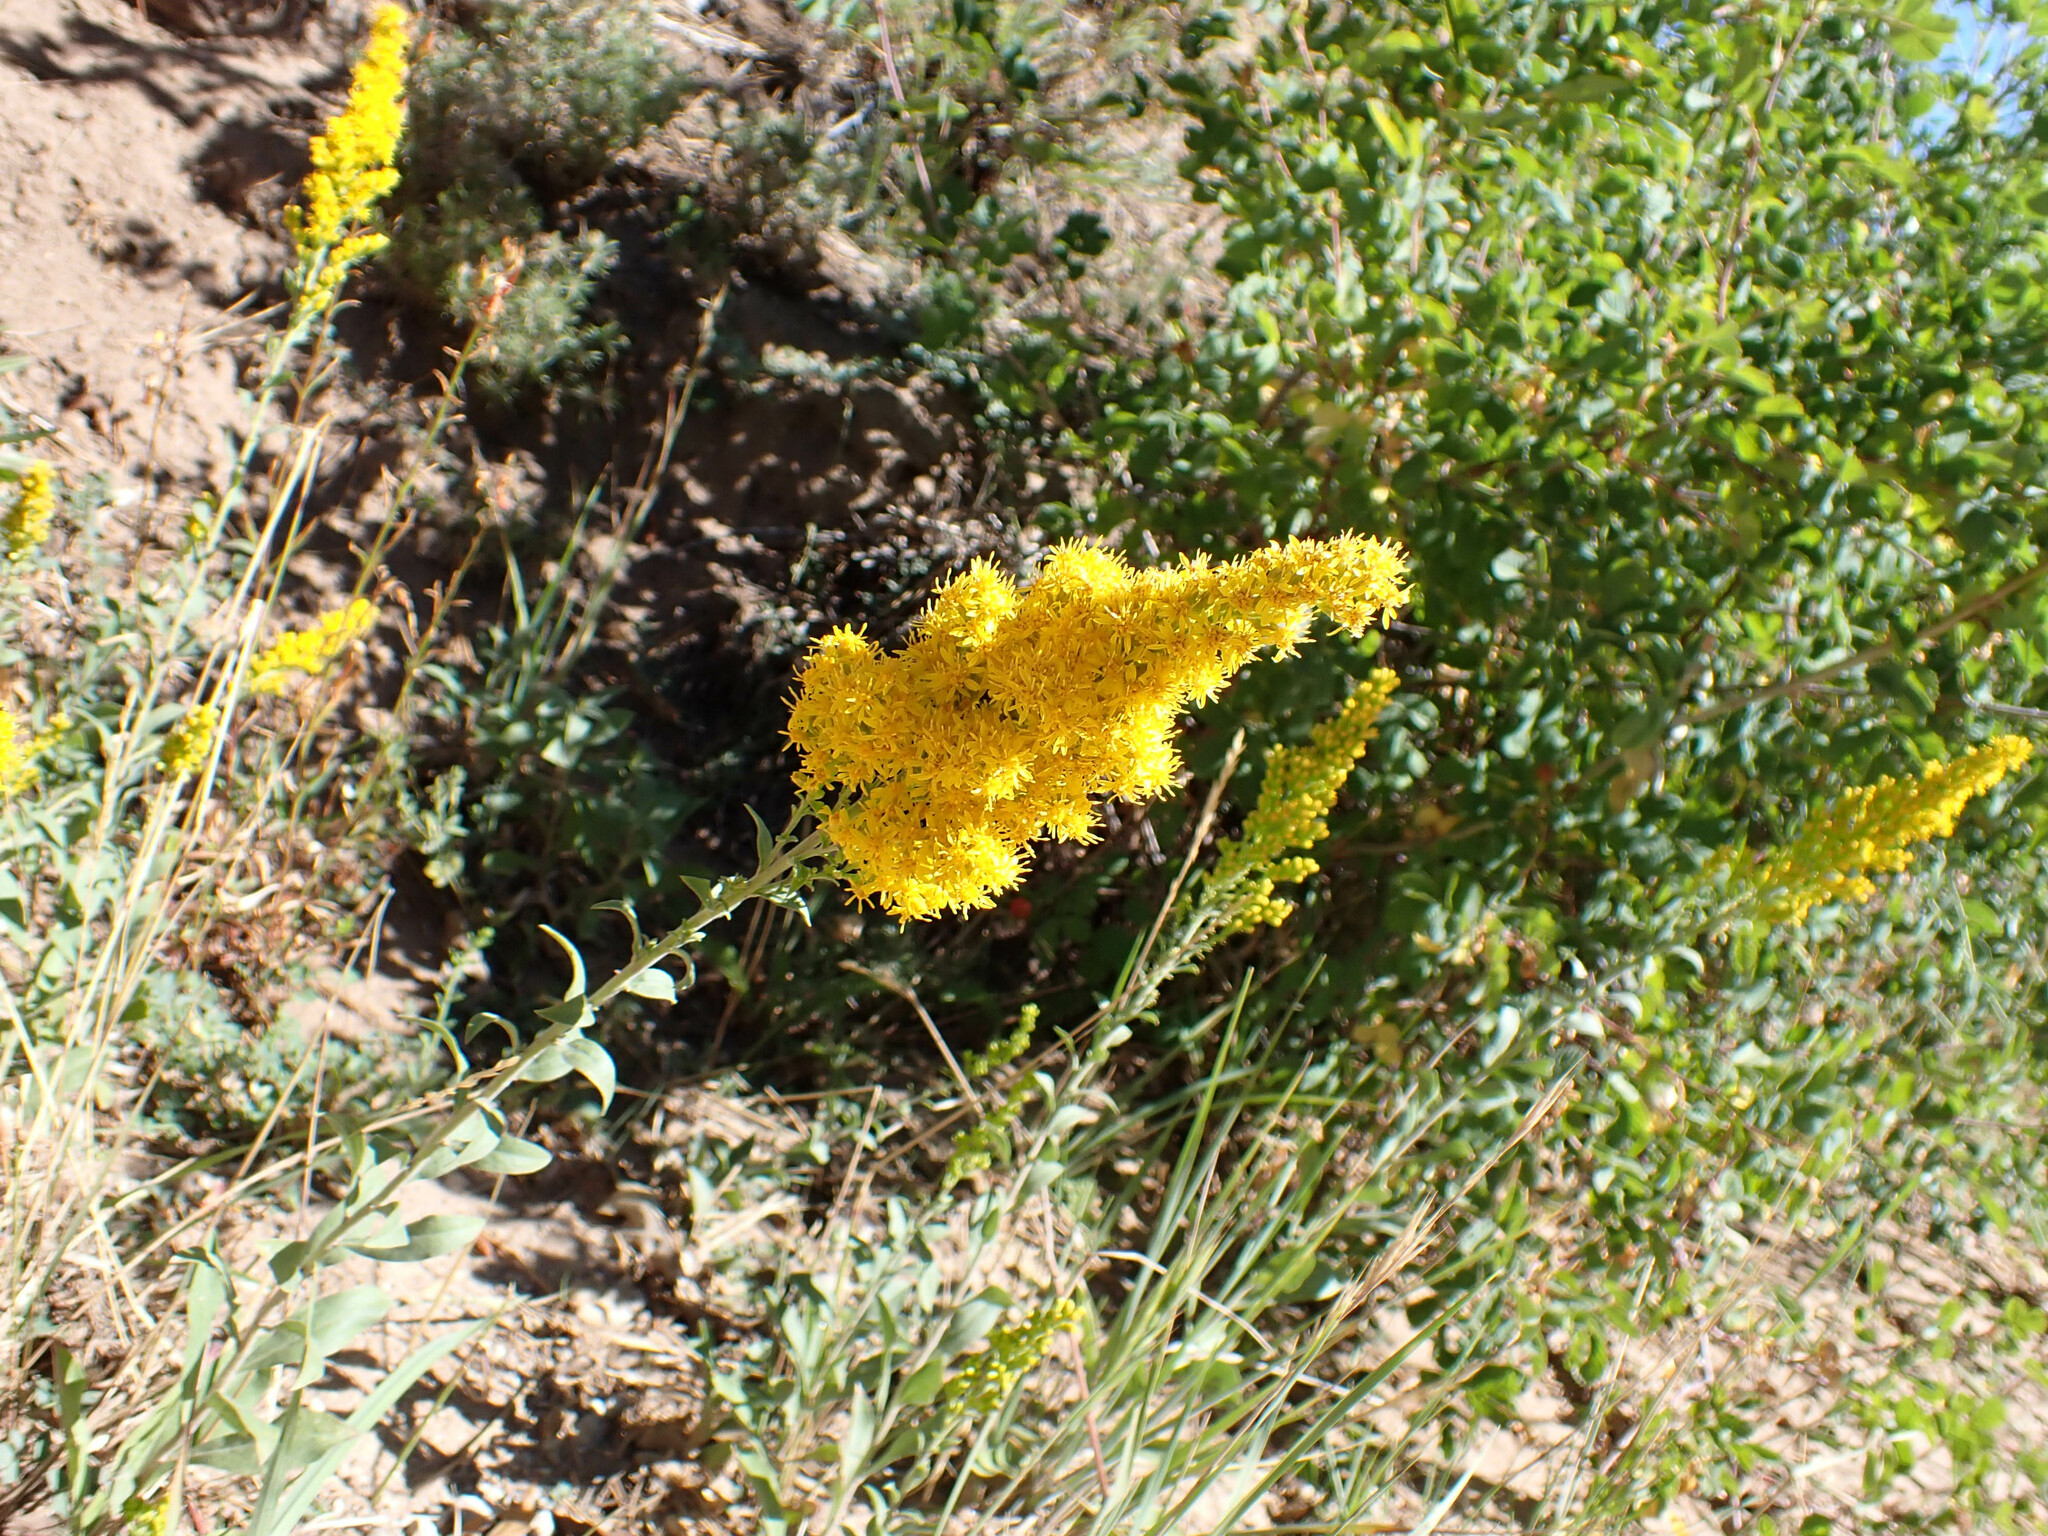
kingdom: Plantae
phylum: Tracheophyta
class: Magnoliopsida
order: Asterales
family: Asteraceae
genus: Solidago
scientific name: Solidago californica
